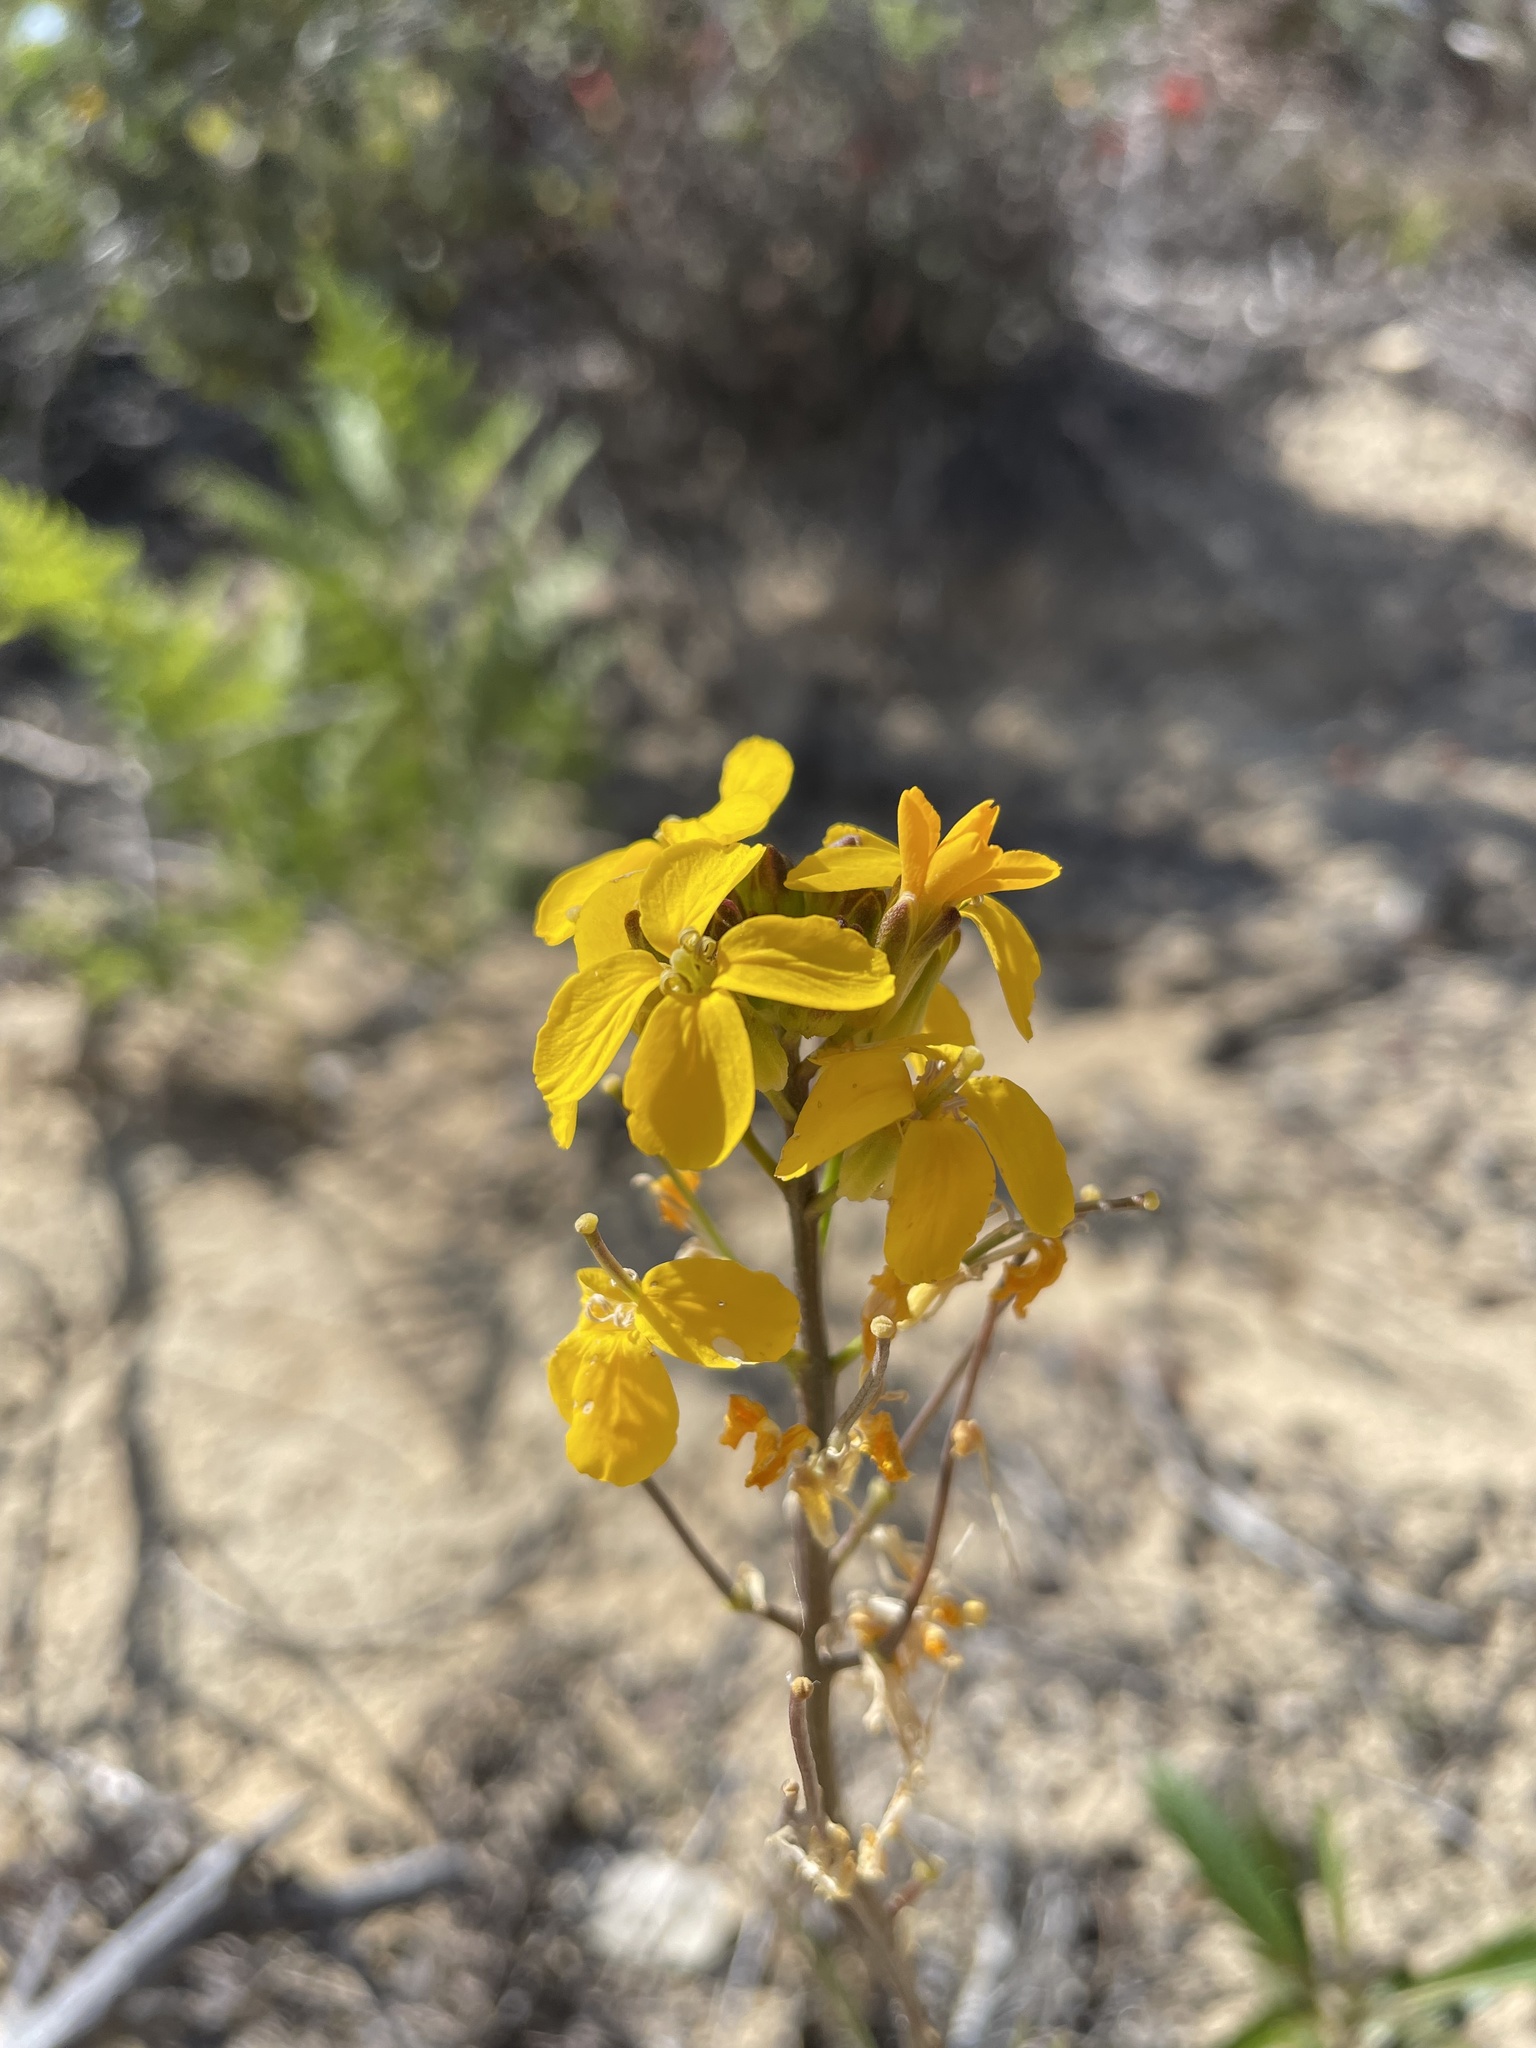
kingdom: Plantae
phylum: Tracheophyta
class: Magnoliopsida
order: Brassicales
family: Brassicaceae
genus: Erysimum
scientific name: Erysimum teretifolium
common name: Ben lomond wallflower
